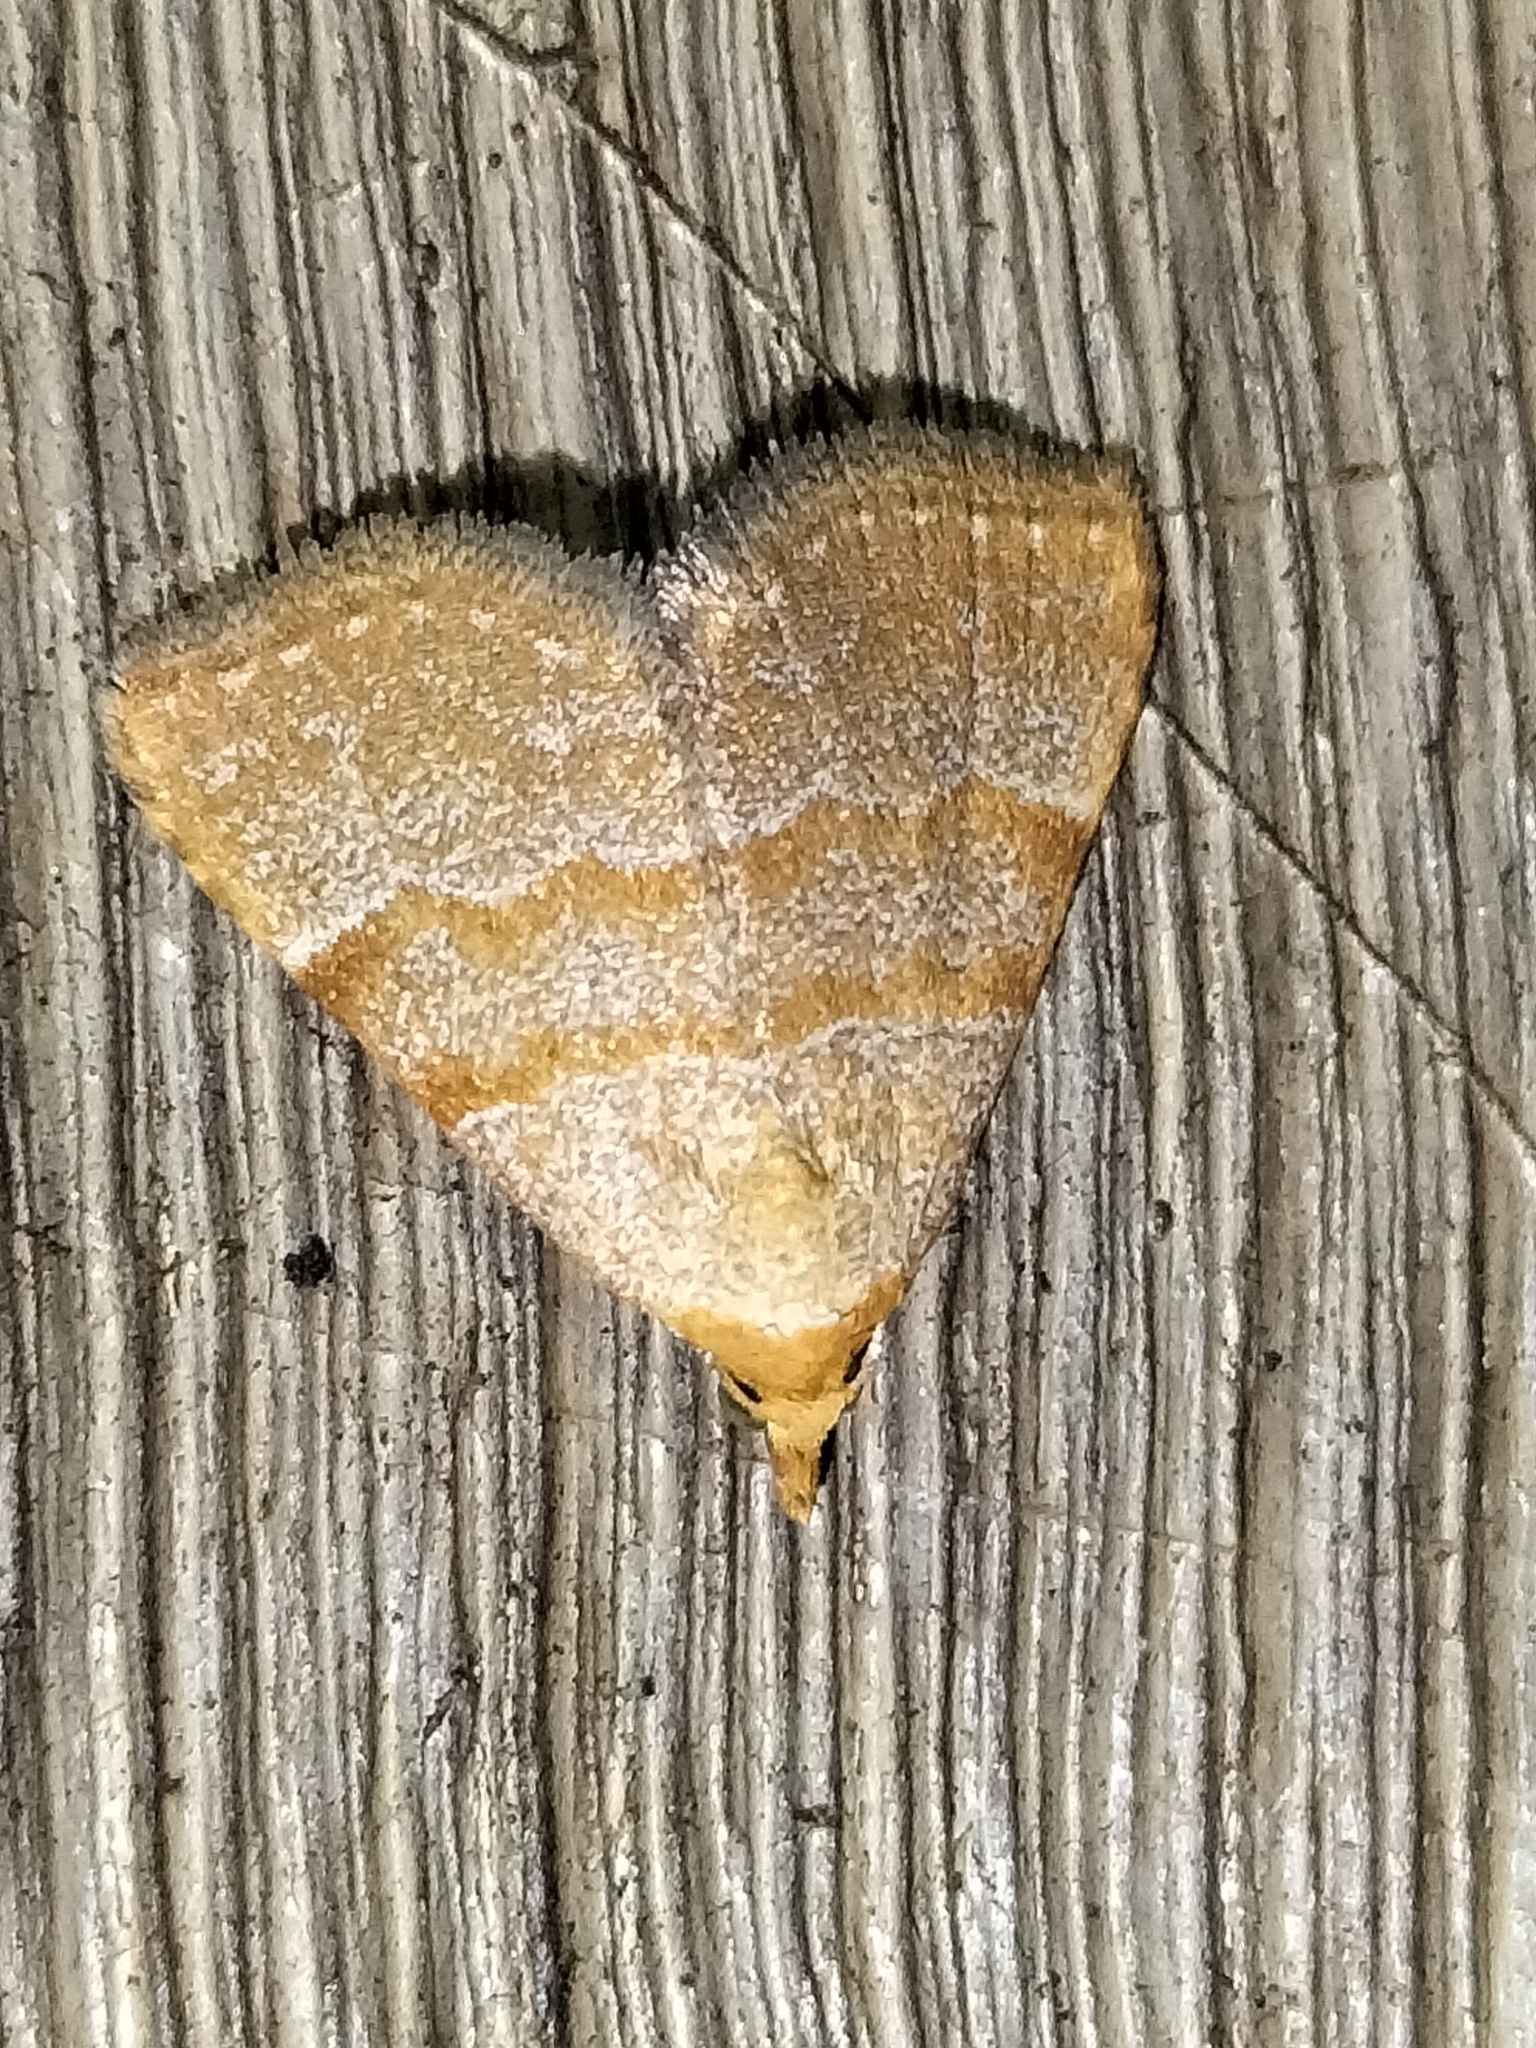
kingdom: Animalia
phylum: Arthropoda
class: Insecta
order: Lepidoptera
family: Erebidae
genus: Meranda
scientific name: Meranda holochrysa
